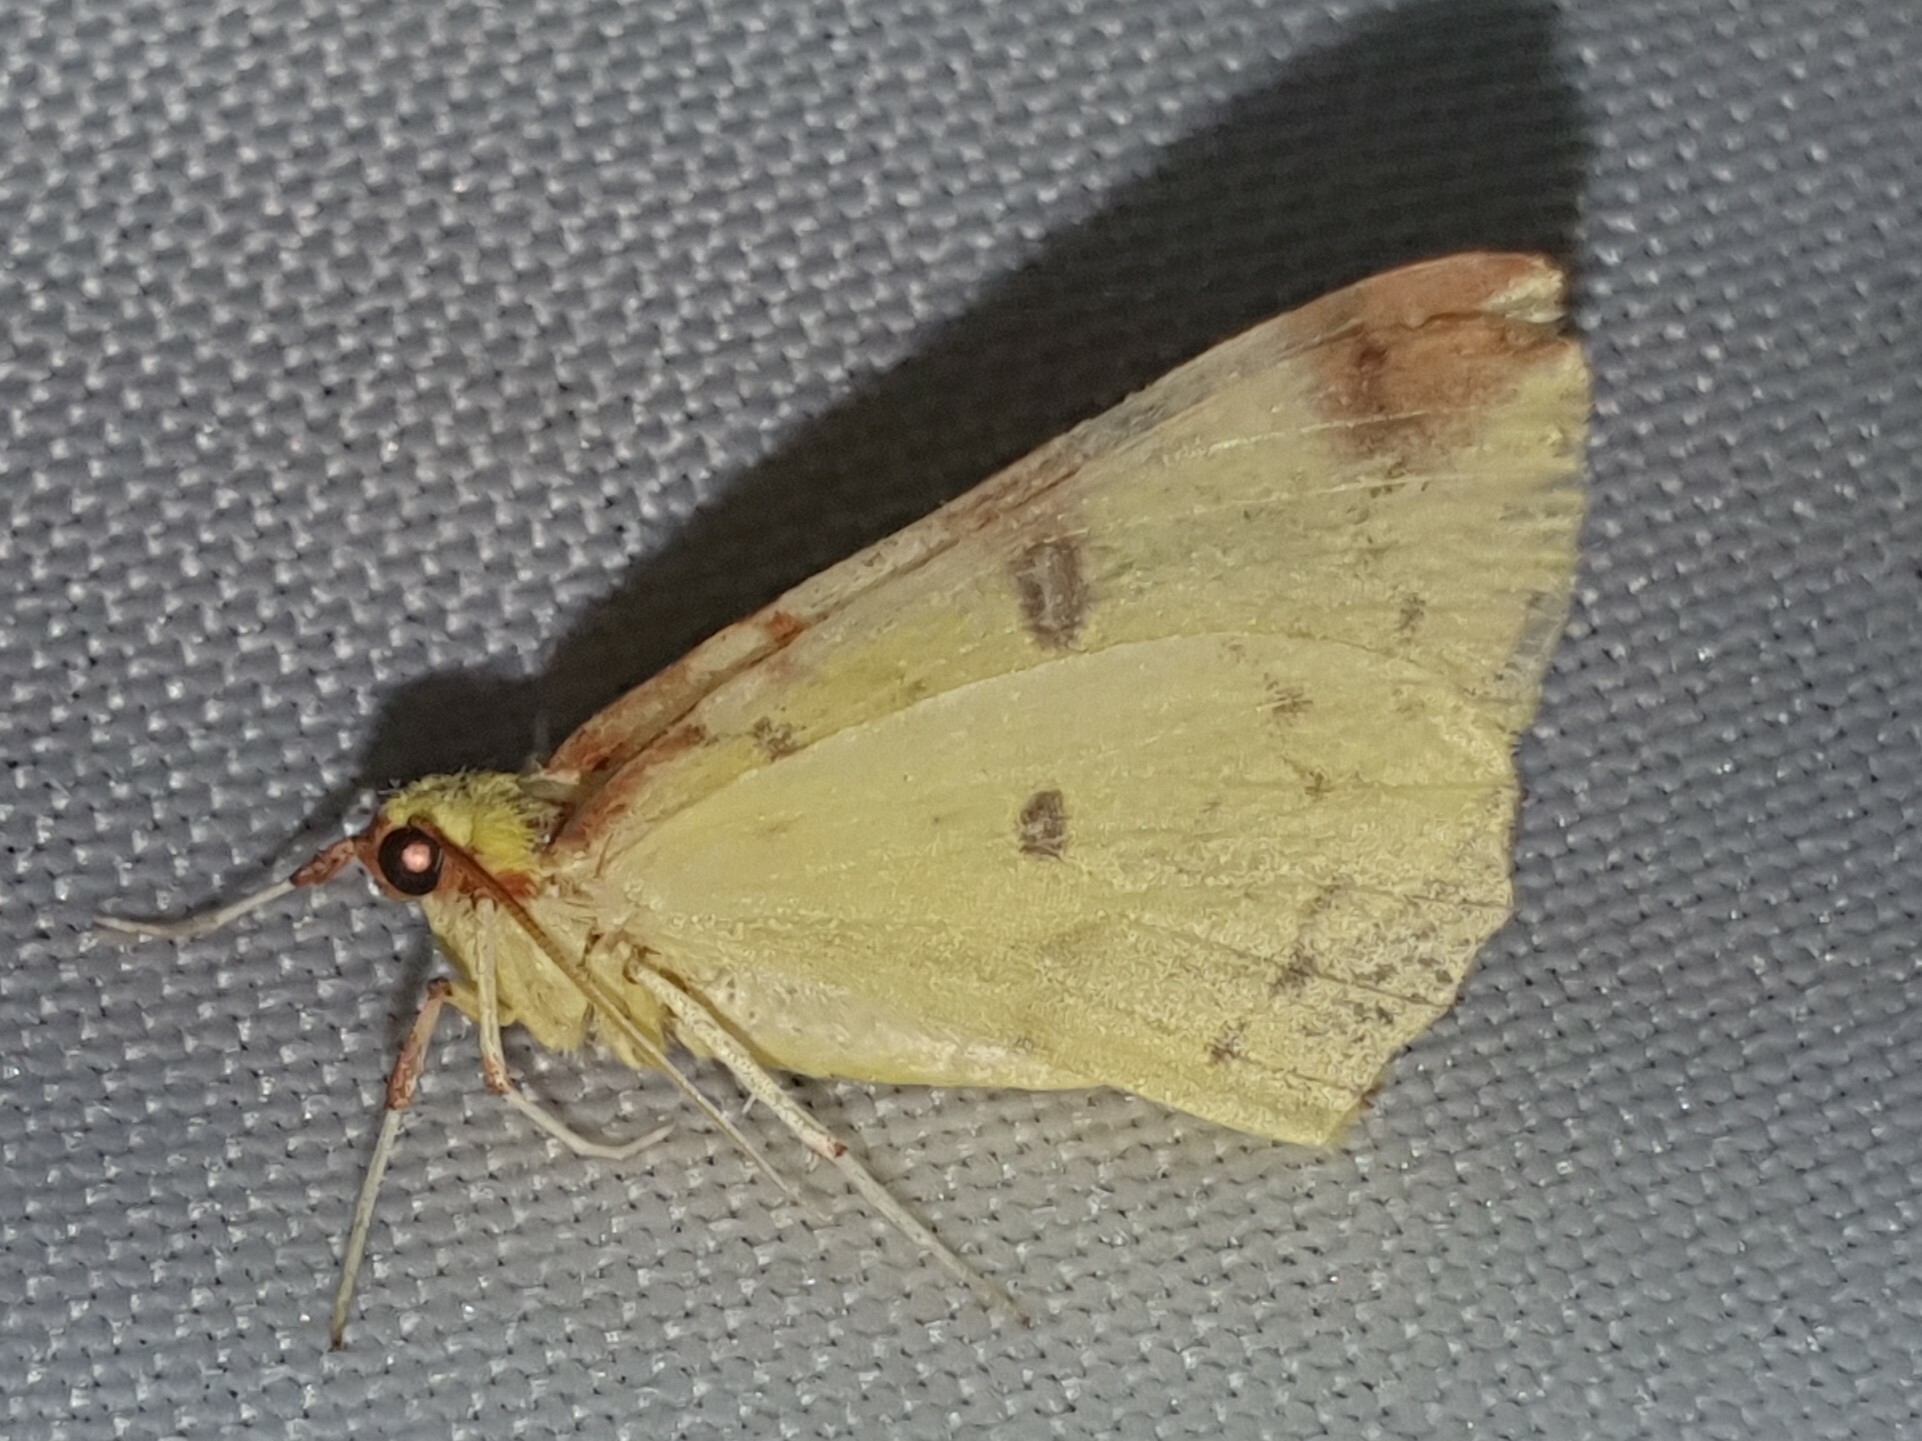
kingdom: Animalia
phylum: Arthropoda
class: Insecta
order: Lepidoptera
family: Geometridae
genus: Opisthograptis
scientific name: Opisthograptis luteolata
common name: Brimstone moth
